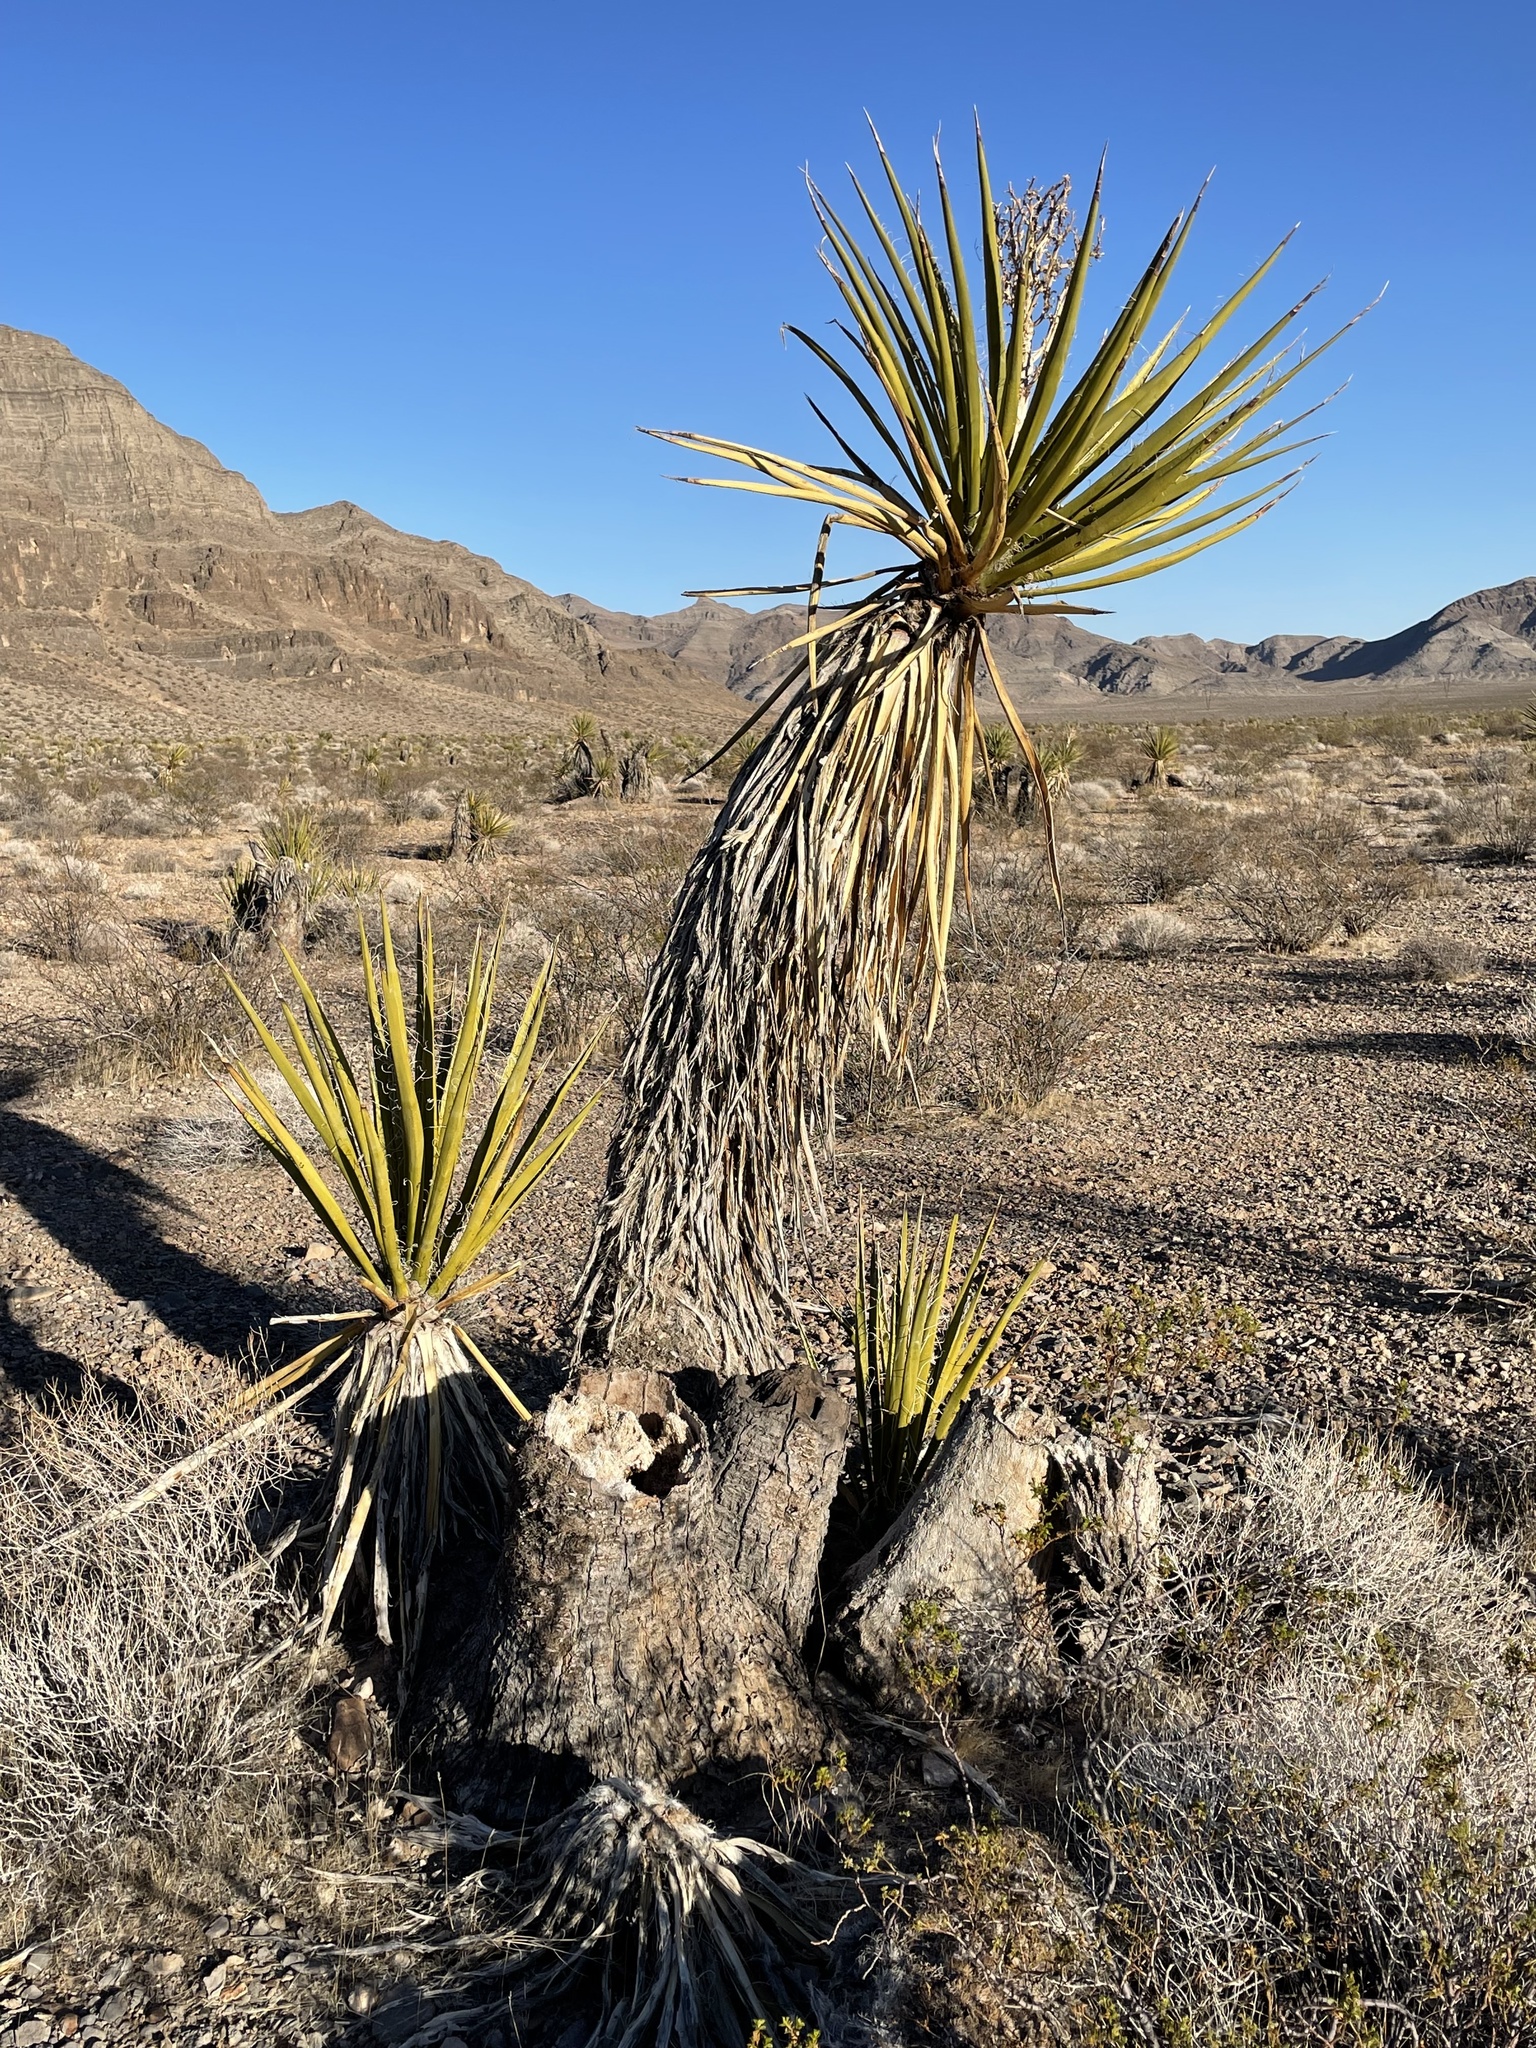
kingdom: Plantae
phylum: Tracheophyta
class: Liliopsida
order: Asparagales
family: Asparagaceae
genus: Yucca
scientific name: Yucca schidigera
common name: Mojave yucca
